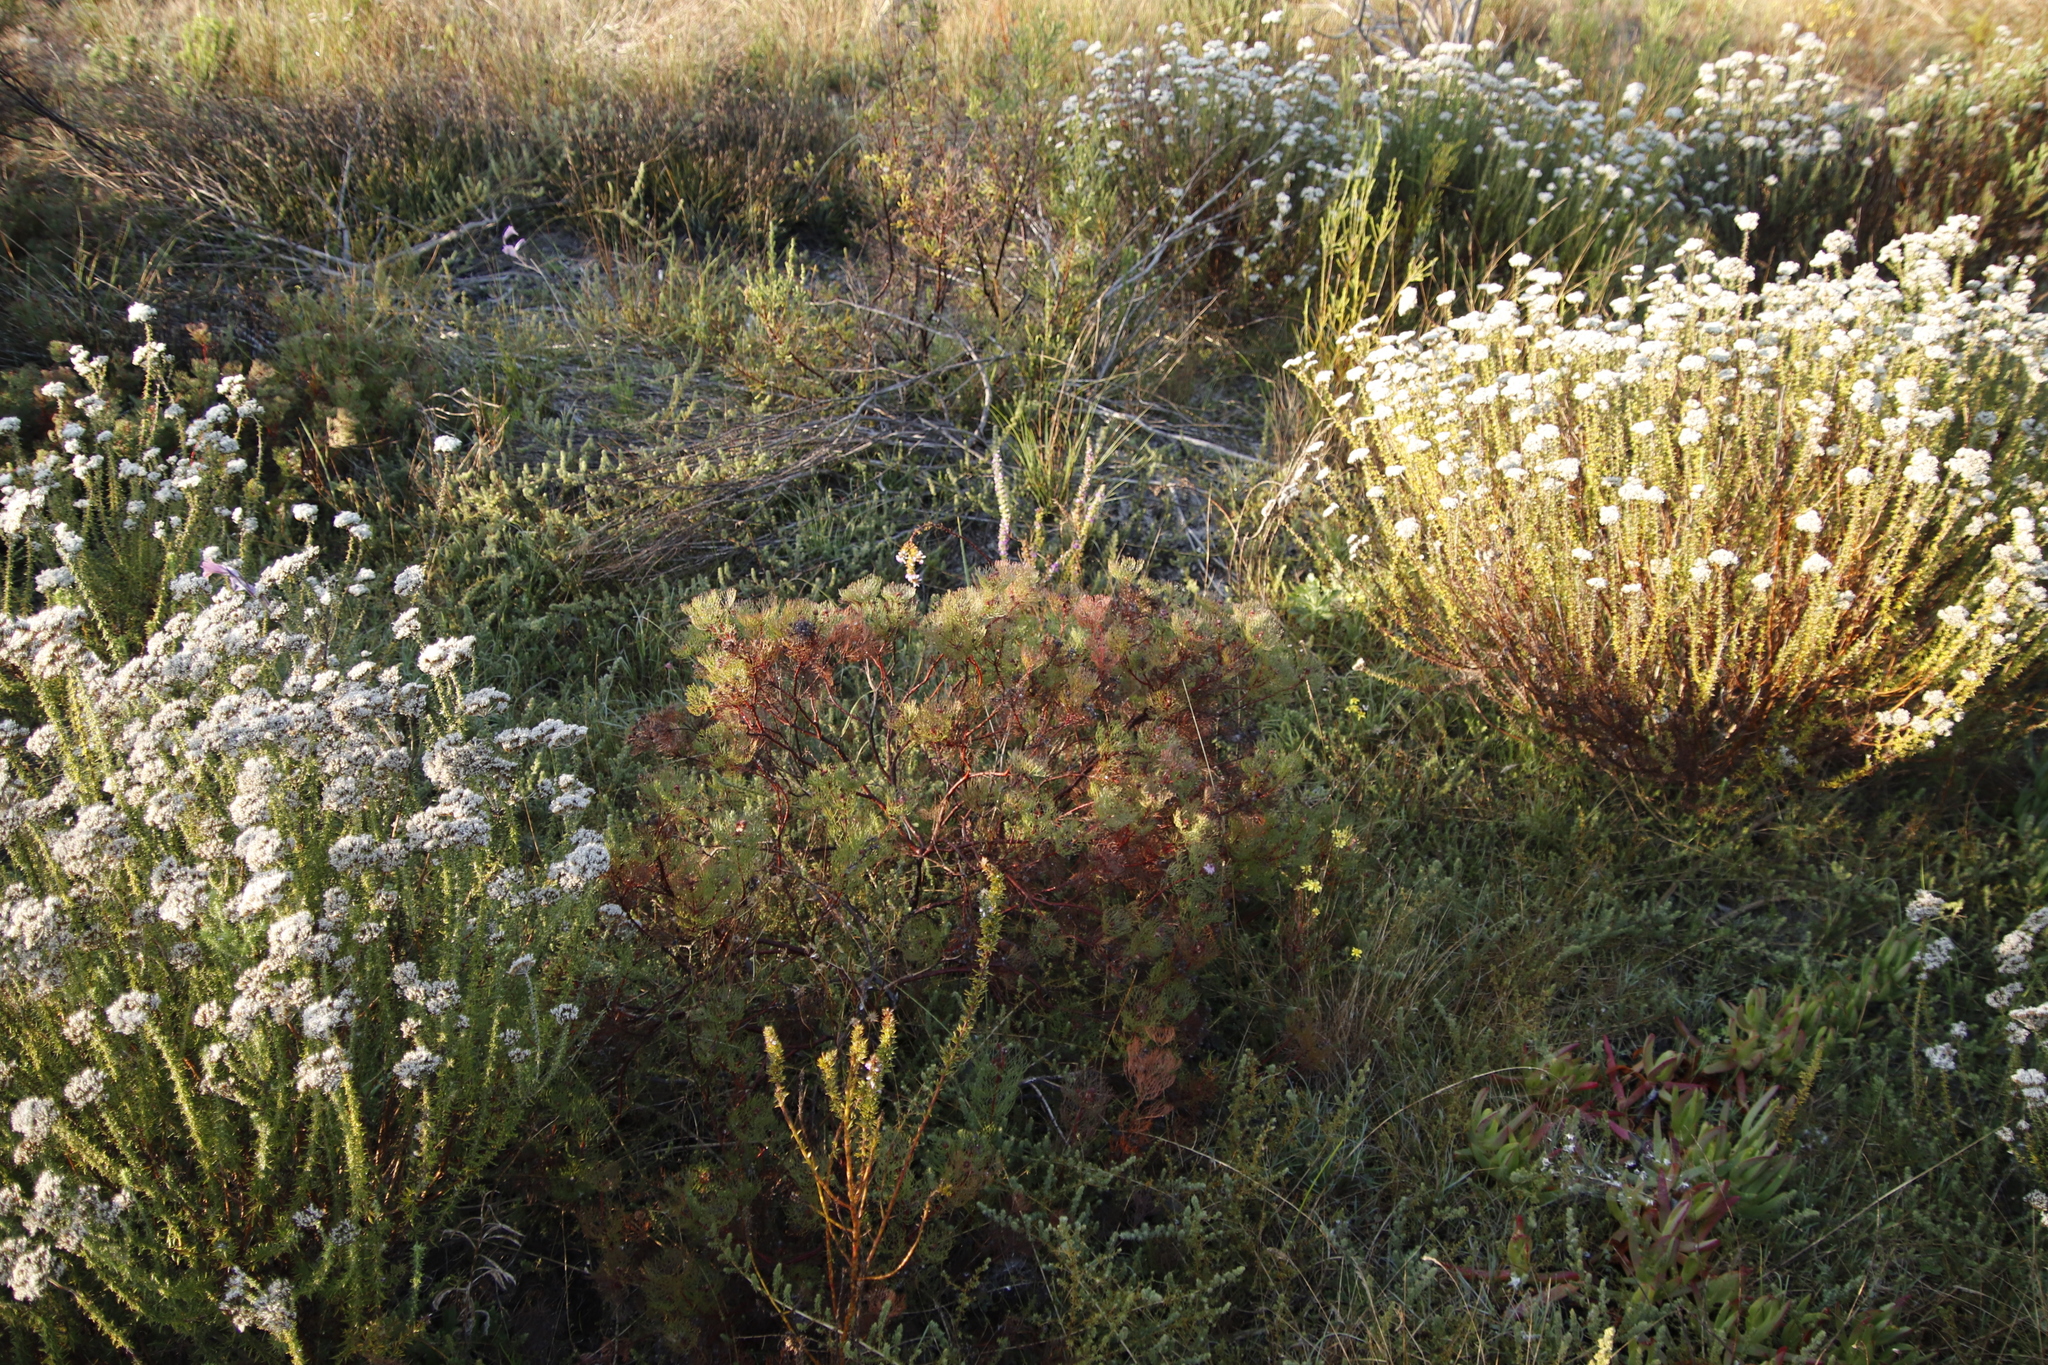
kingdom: Plantae
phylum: Tracheophyta
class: Magnoliopsida
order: Proteales
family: Proteaceae
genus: Serruria
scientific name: Serruria fasciflora
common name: Common pin spiderhead
